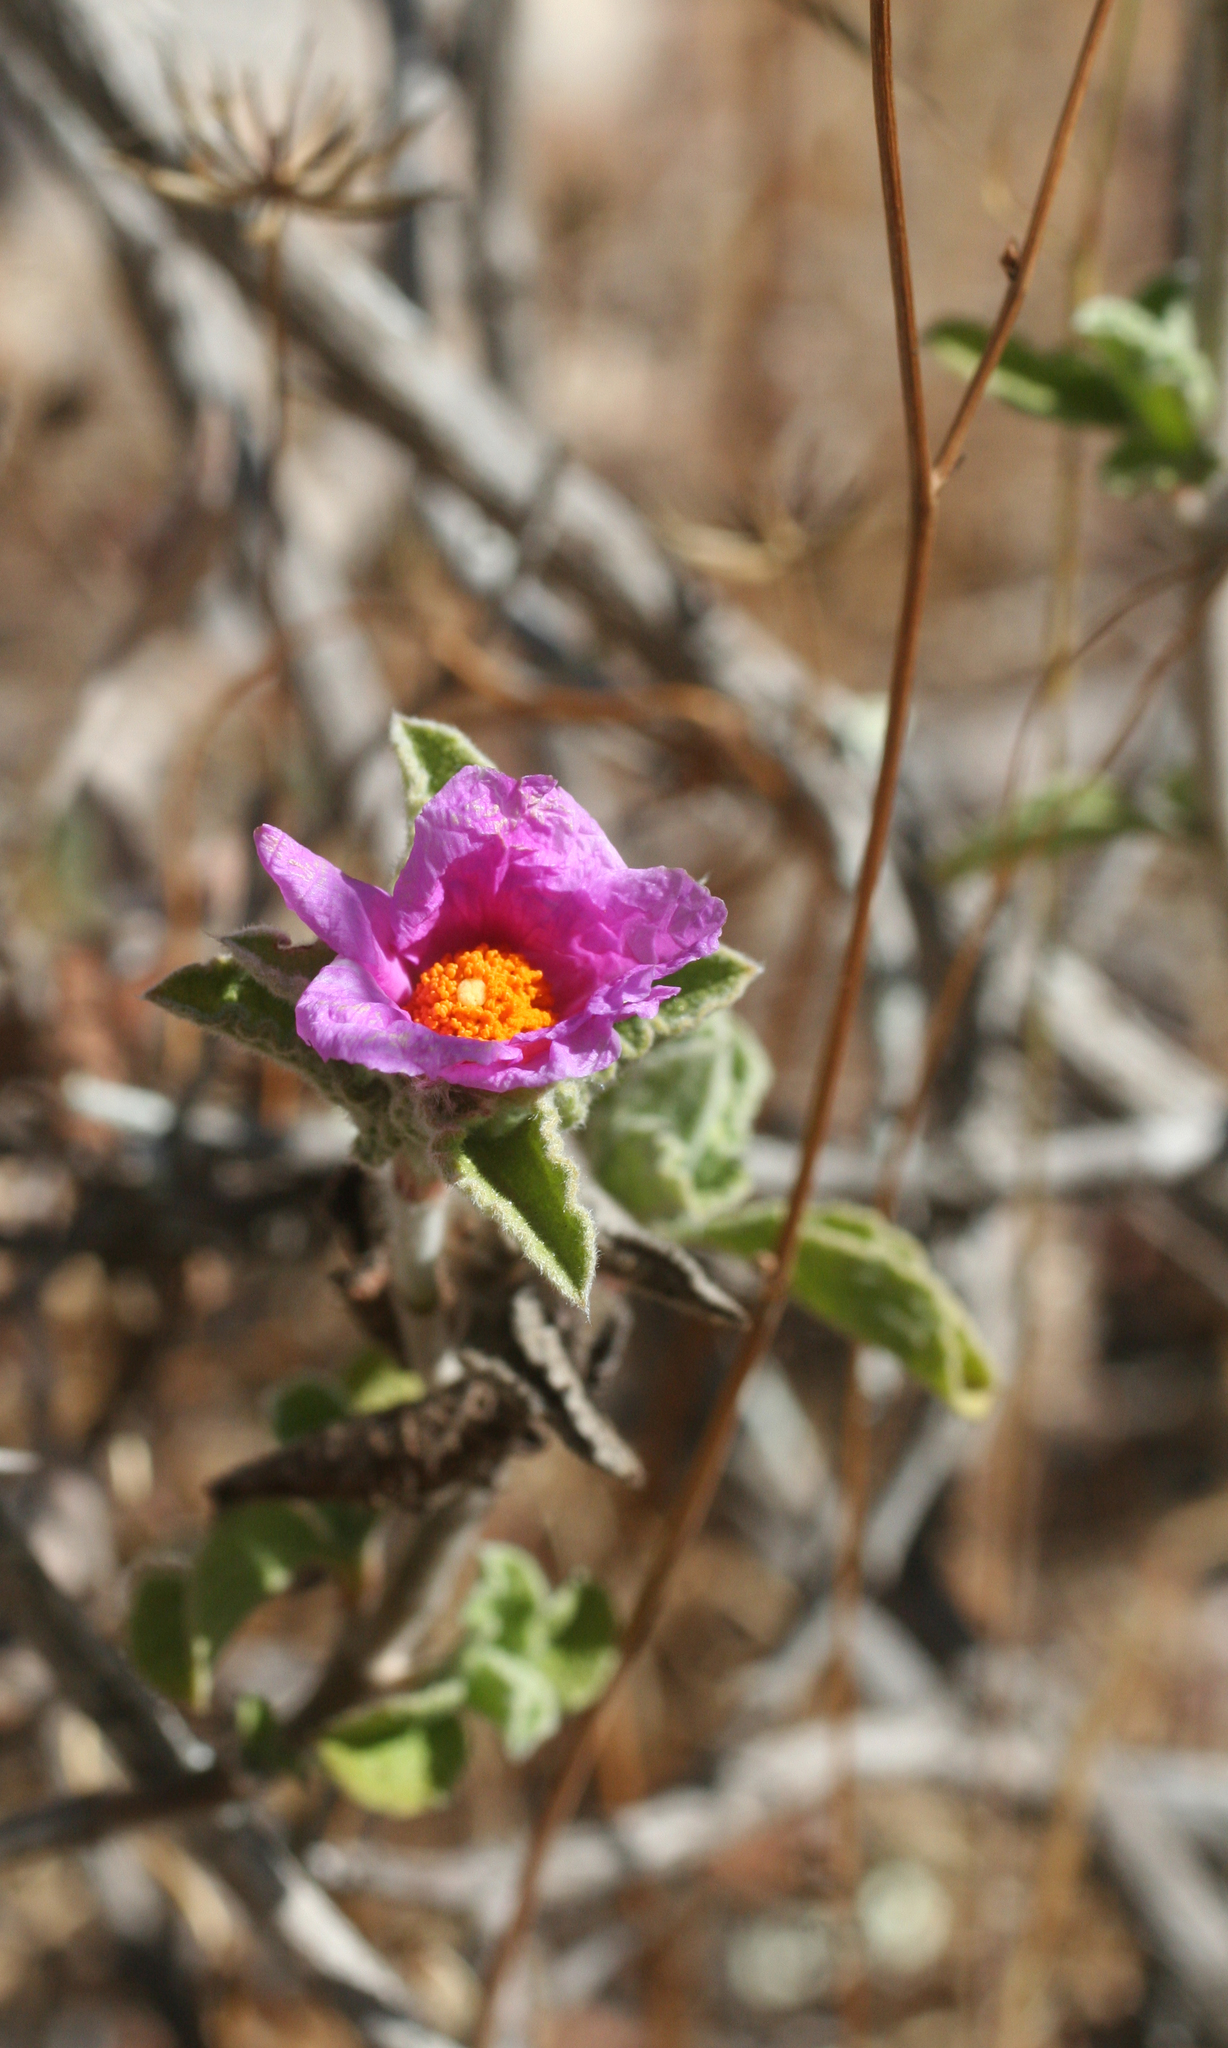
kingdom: Plantae
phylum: Tracheophyta
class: Magnoliopsida
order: Malvales
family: Cistaceae
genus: Cistus
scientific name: Cistus creticus
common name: Cretan rockrose
